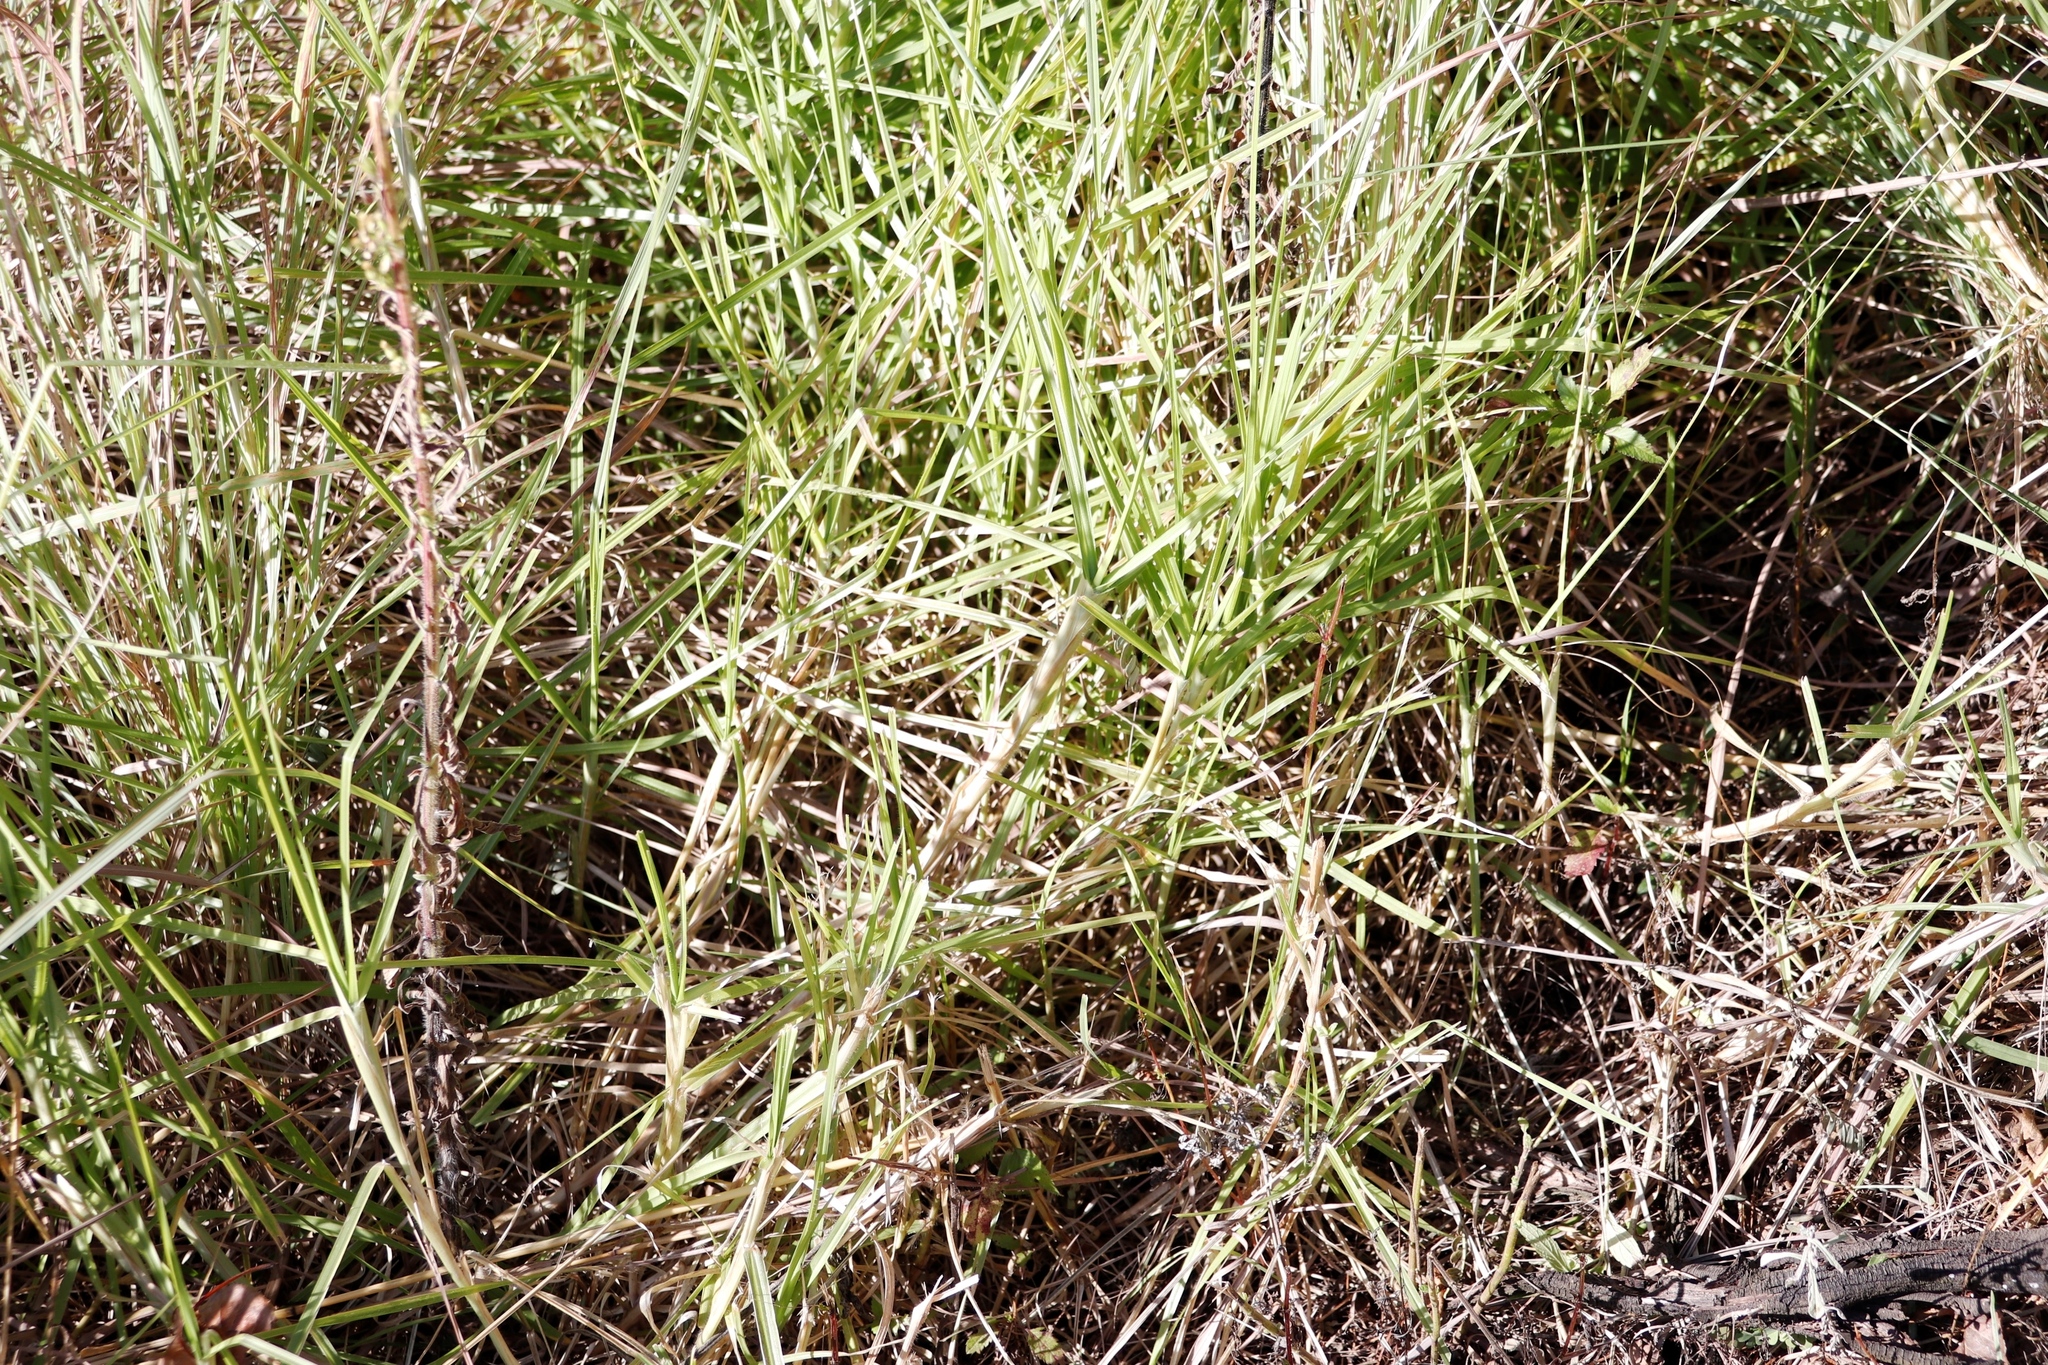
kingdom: Plantae
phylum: Tracheophyta
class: Liliopsida
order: Poales
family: Poaceae
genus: Cenchrus
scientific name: Cenchrus clandestinus
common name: Kikuyugrass
